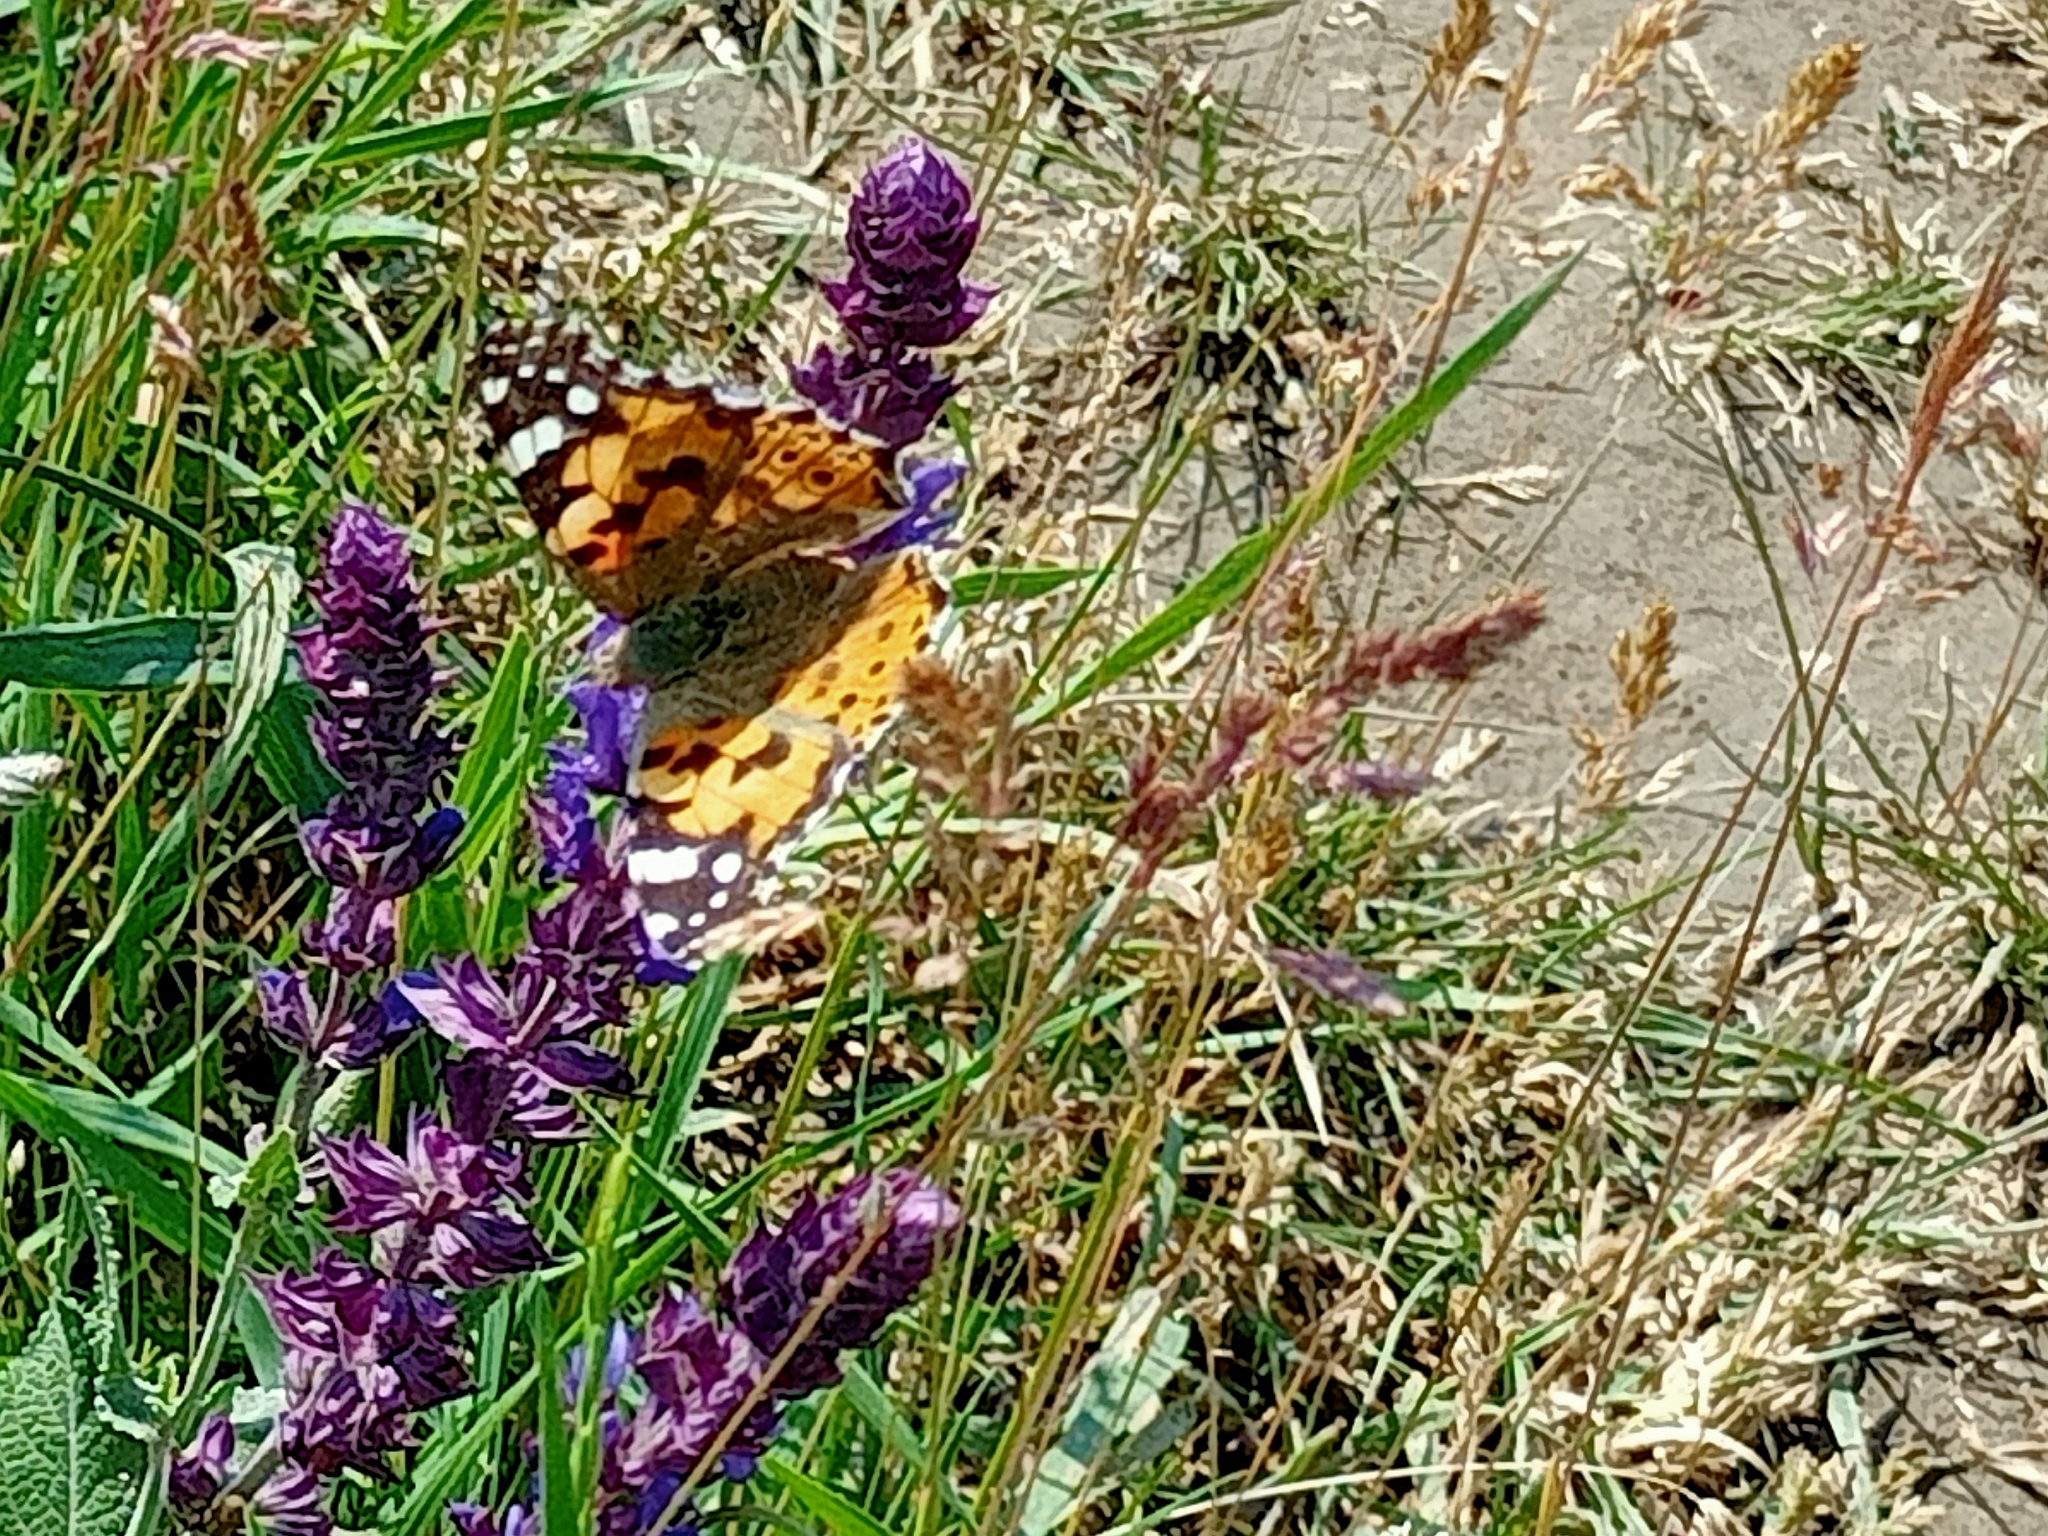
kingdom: Animalia
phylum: Arthropoda
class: Insecta
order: Lepidoptera
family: Nymphalidae
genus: Vanessa
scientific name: Vanessa cardui
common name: Painted lady
